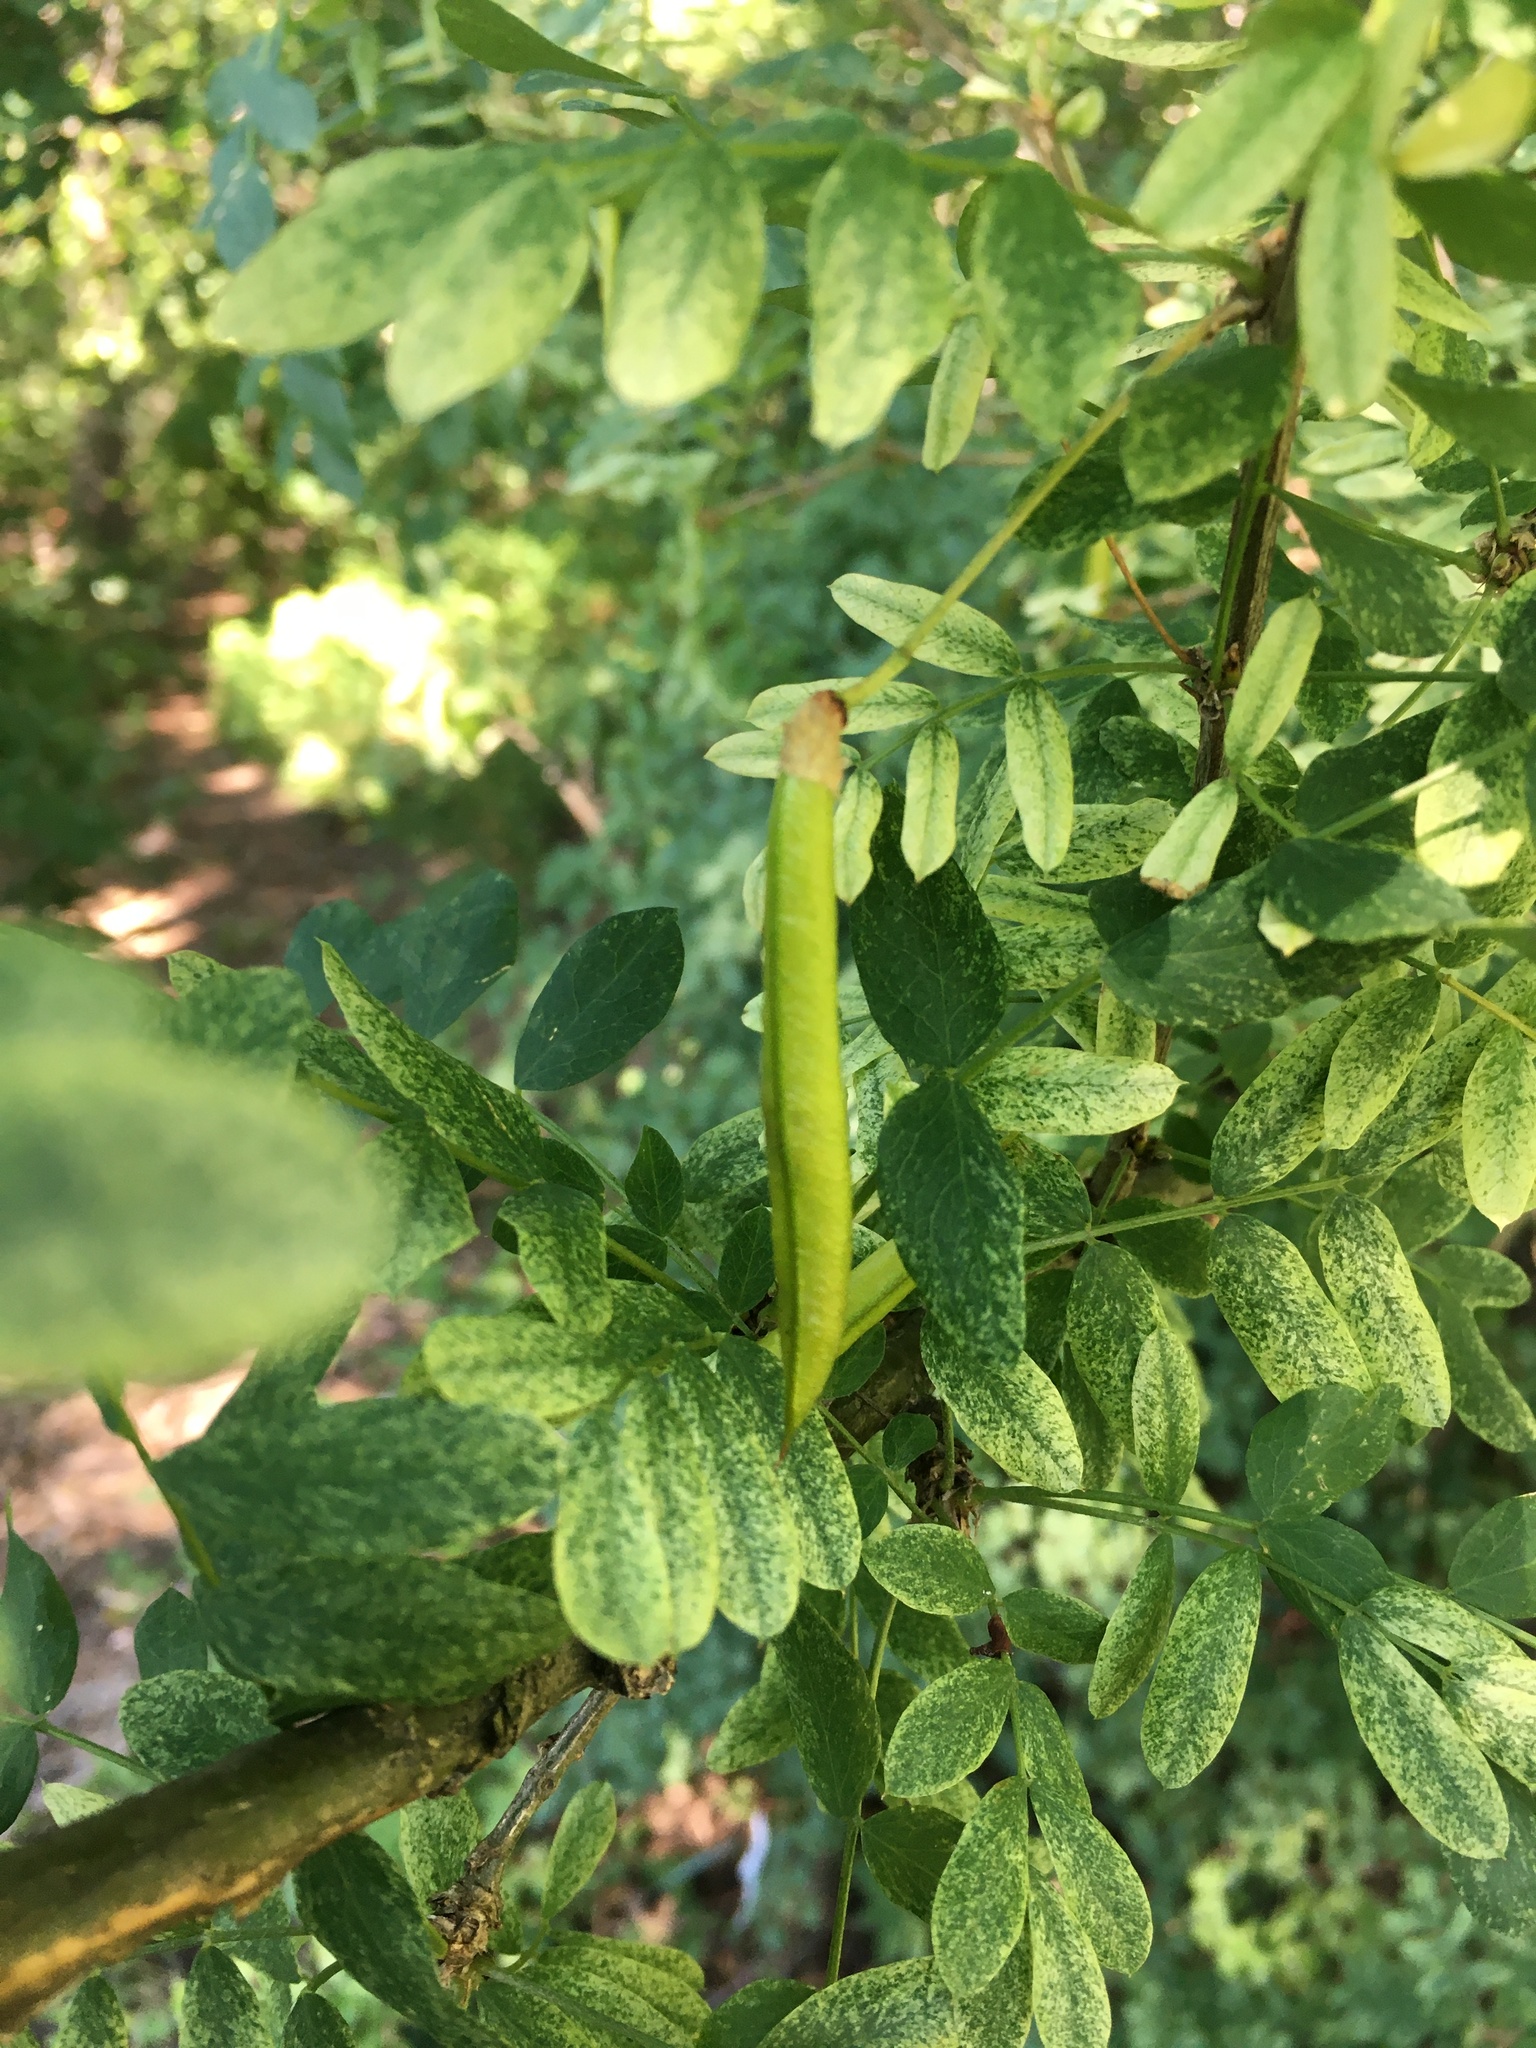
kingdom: Plantae
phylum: Tracheophyta
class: Magnoliopsida
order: Fabales
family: Fabaceae
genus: Caragana
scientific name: Caragana arborescens
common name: Siberian peashrub
